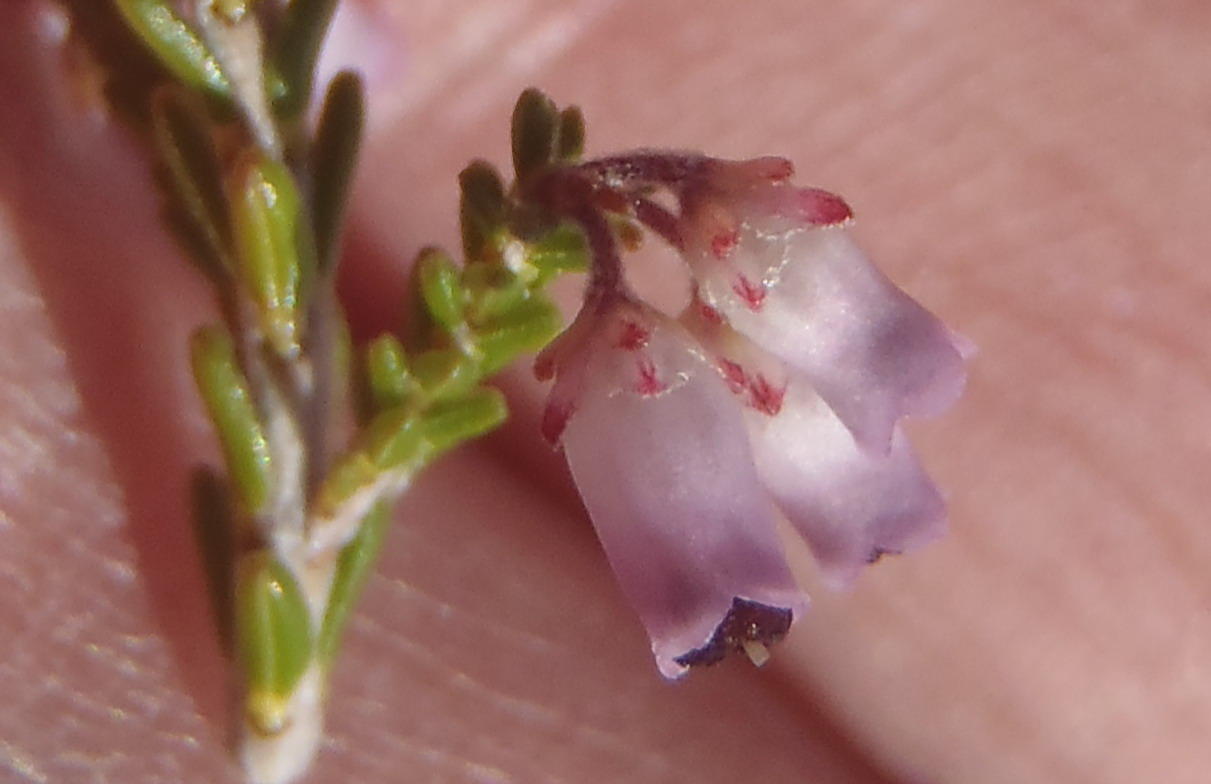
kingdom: Plantae
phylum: Tracheophyta
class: Magnoliopsida
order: Ericales
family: Ericaceae
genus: Erica
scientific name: Erica vlokii
